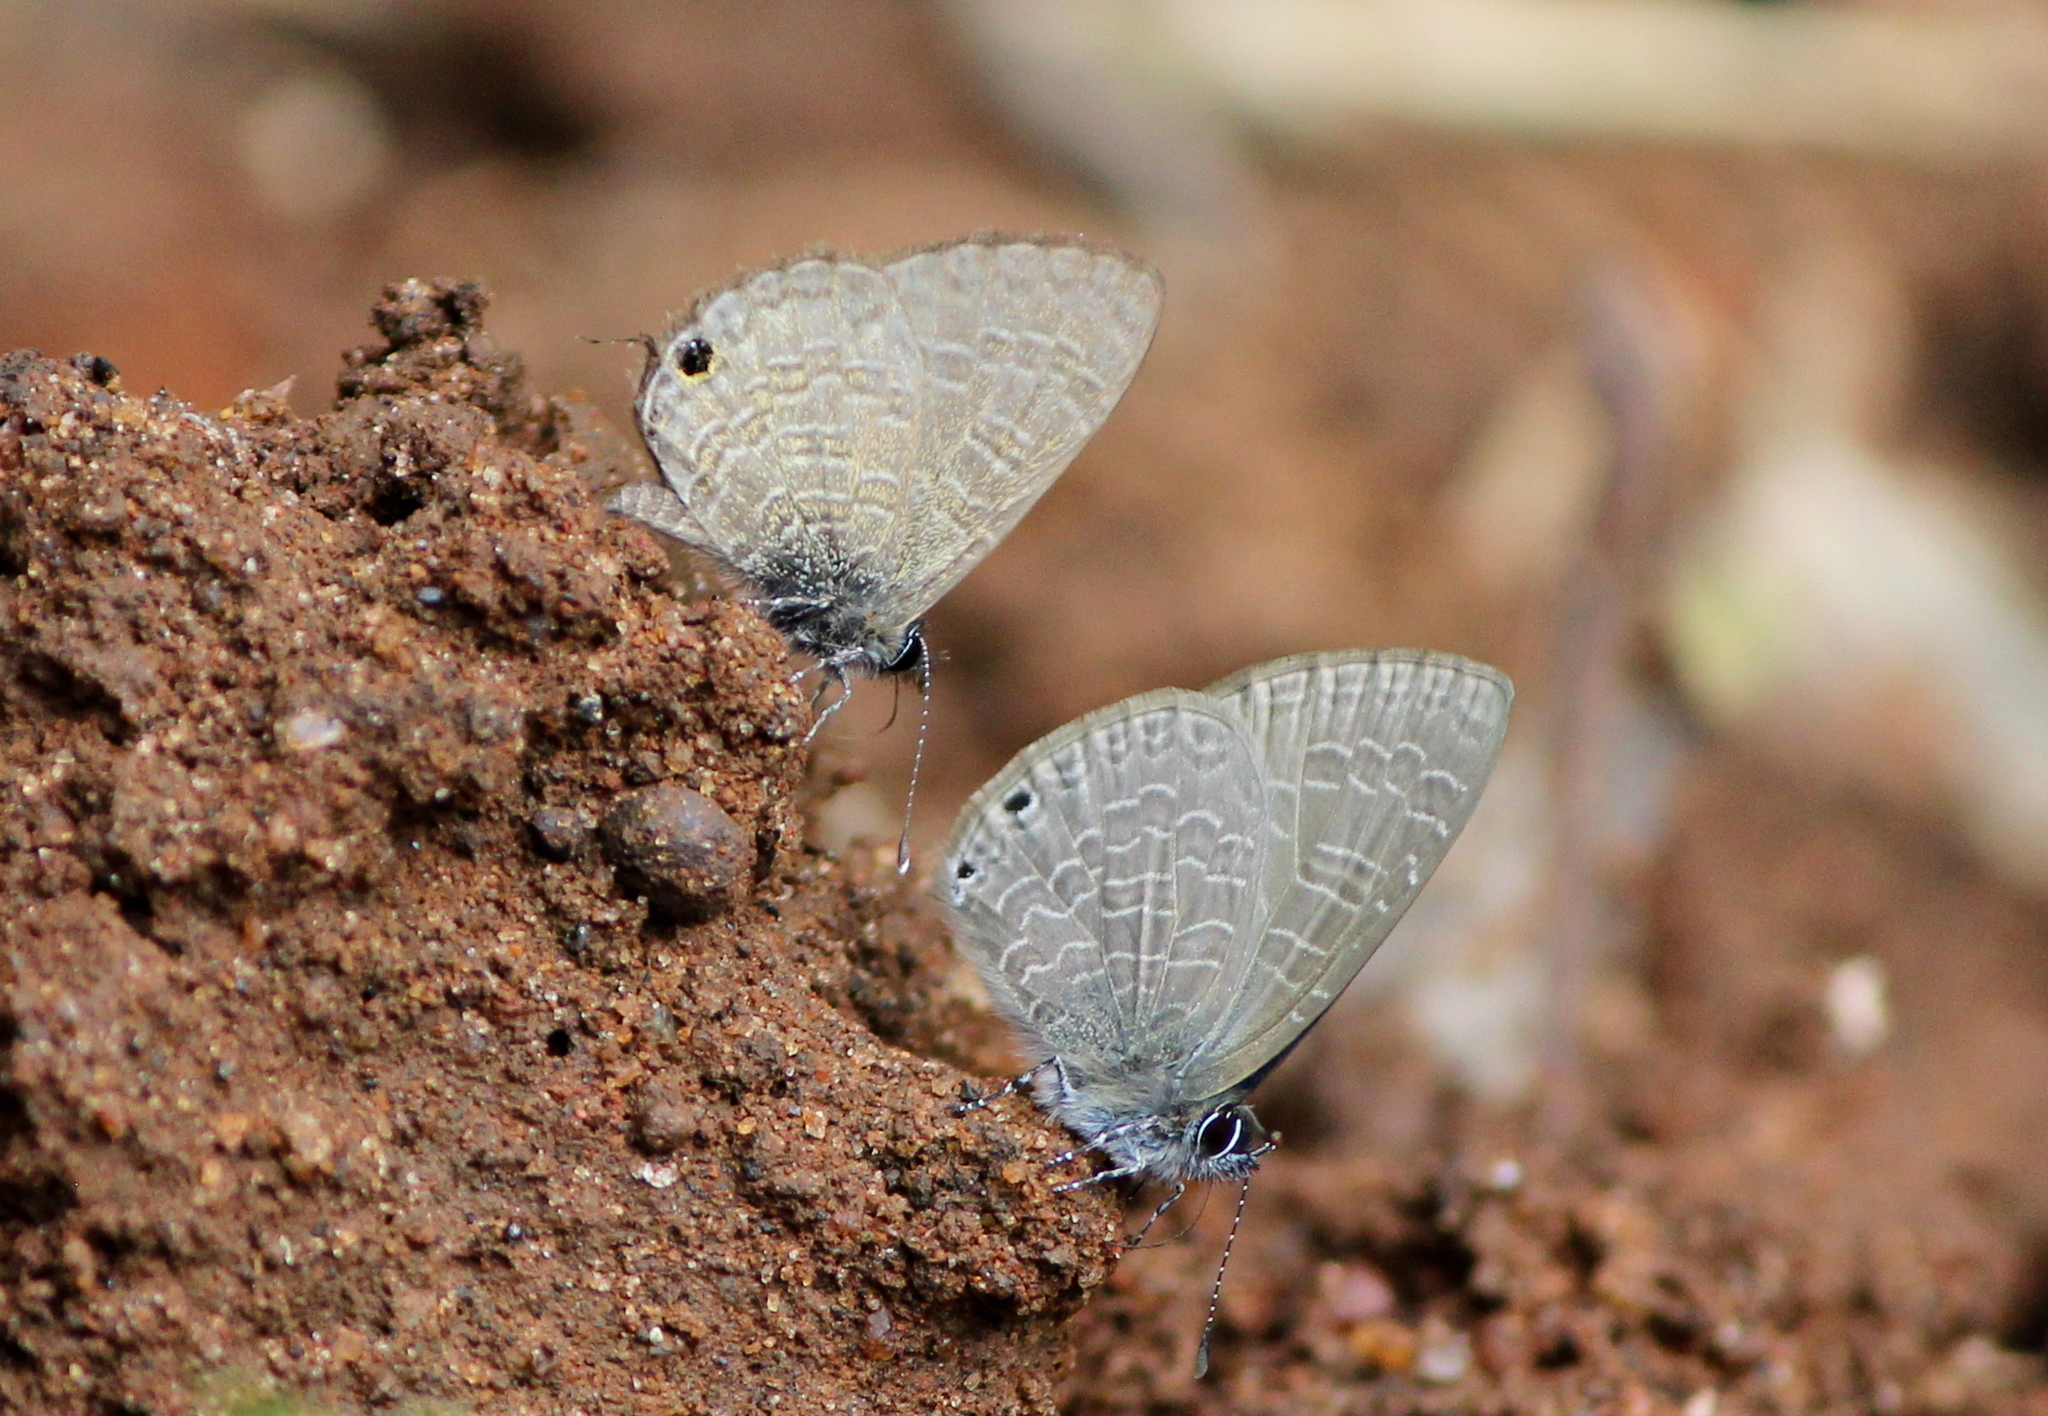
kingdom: Animalia
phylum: Arthropoda
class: Insecta
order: Lepidoptera
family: Lycaenidae
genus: Petrelaea
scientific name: Petrelaea dana
